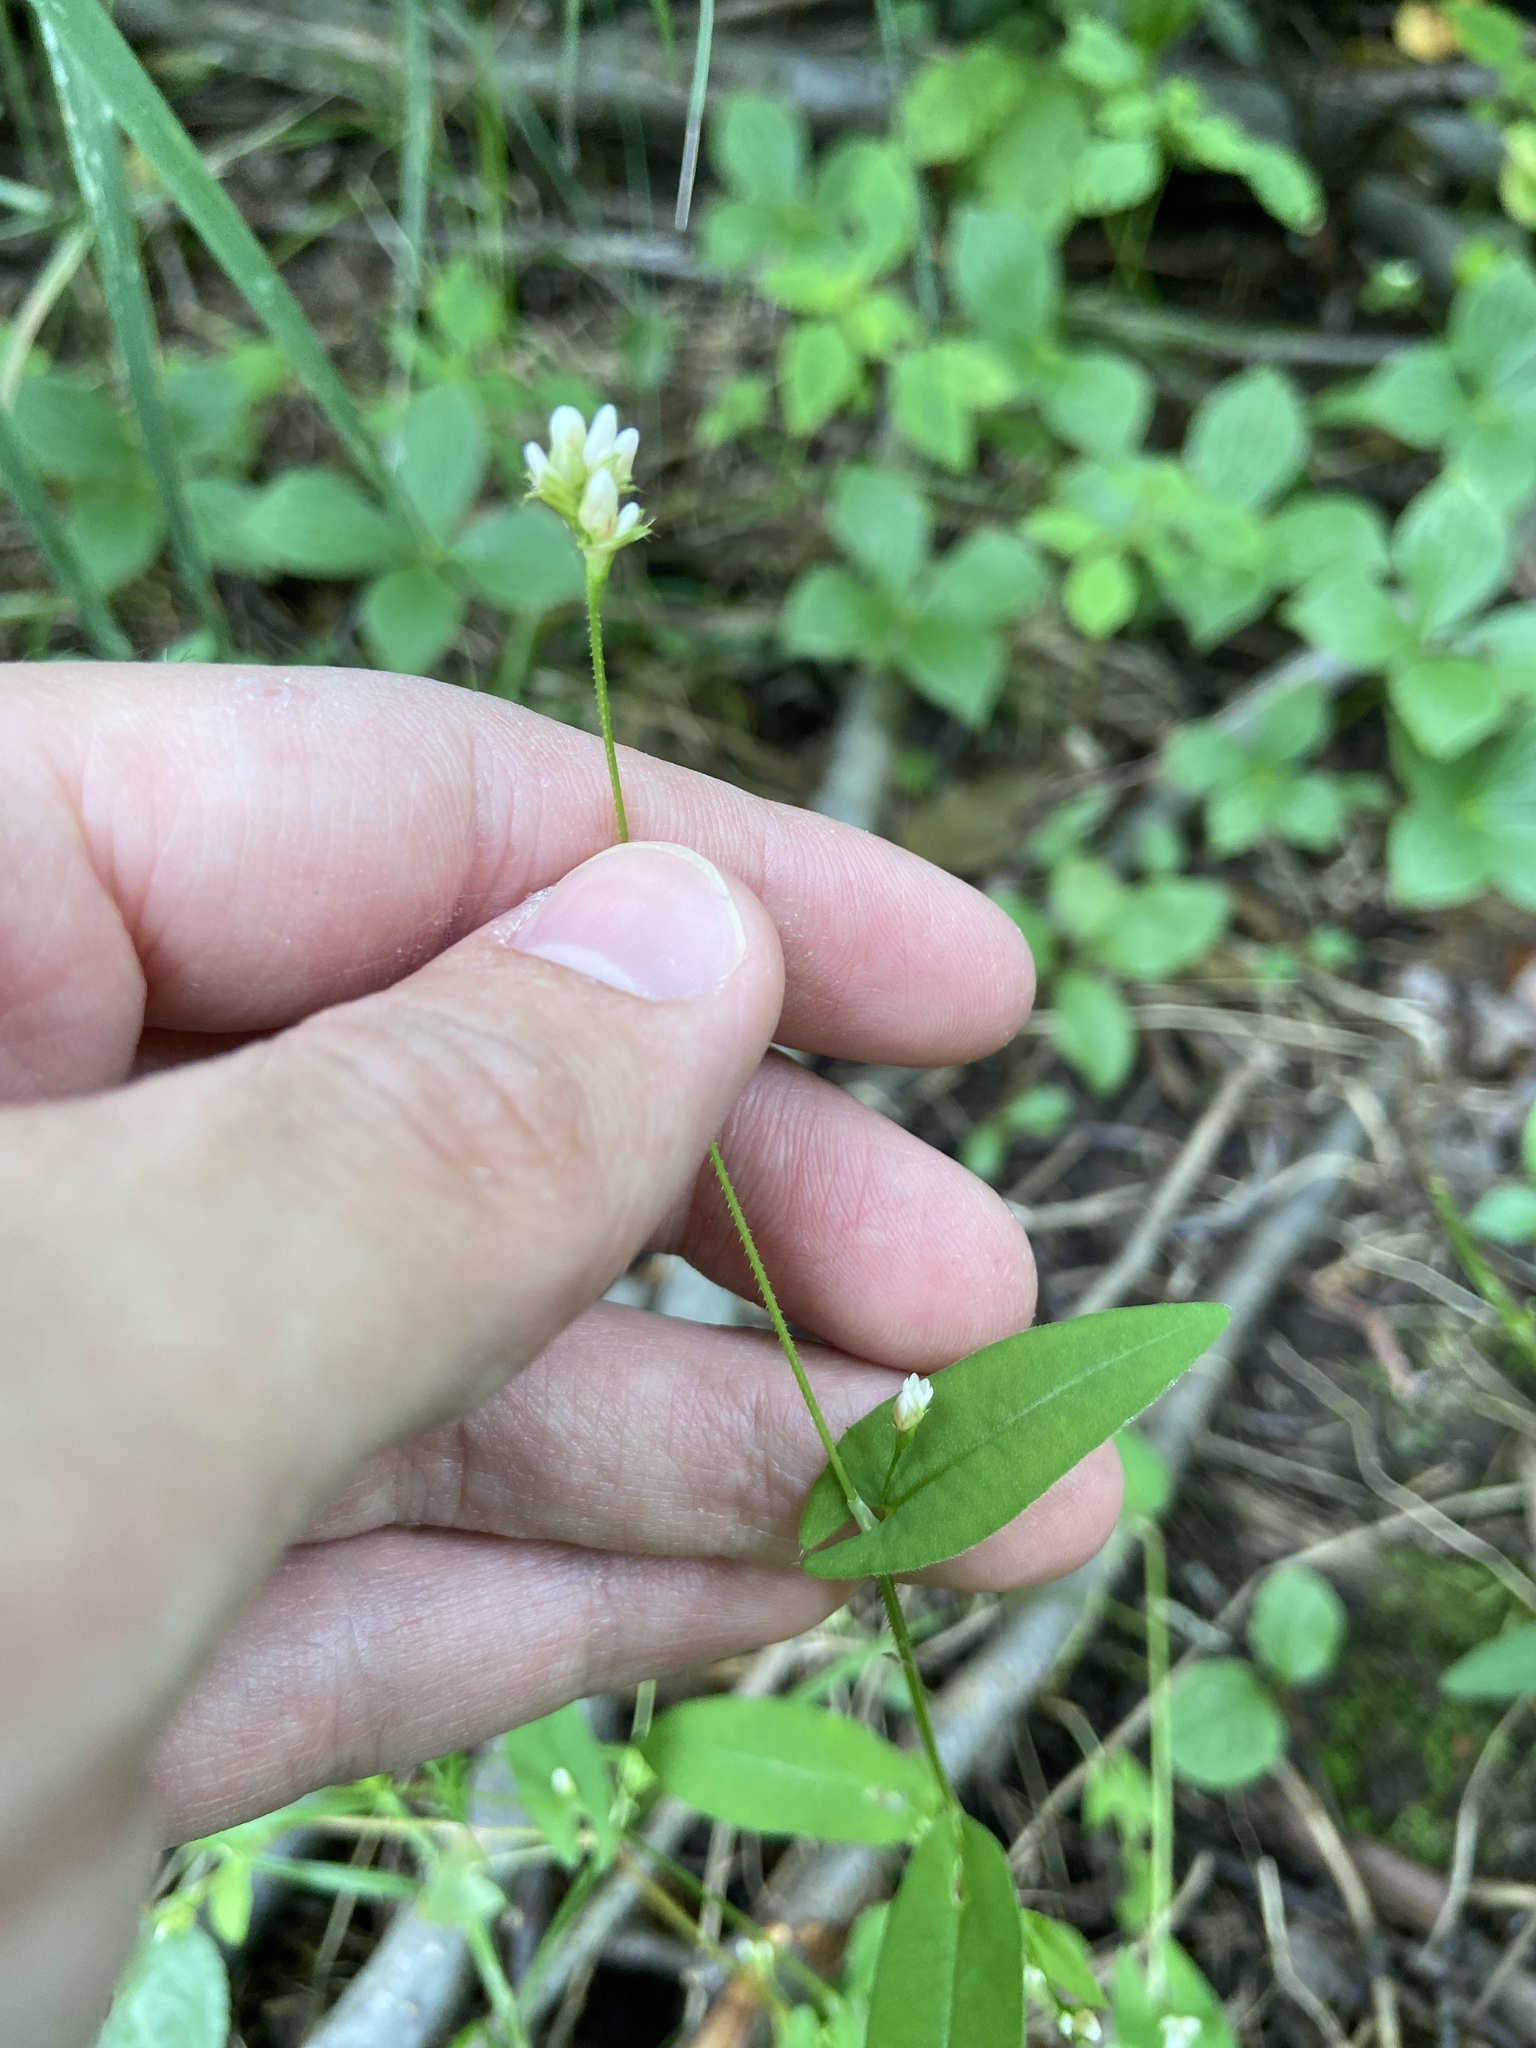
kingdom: Plantae
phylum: Tracheophyta
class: Magnoliopsida
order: Caryophyllales
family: Polygonaceae
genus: Persicaria
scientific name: Persicaria sagittata
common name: American tearthumb
